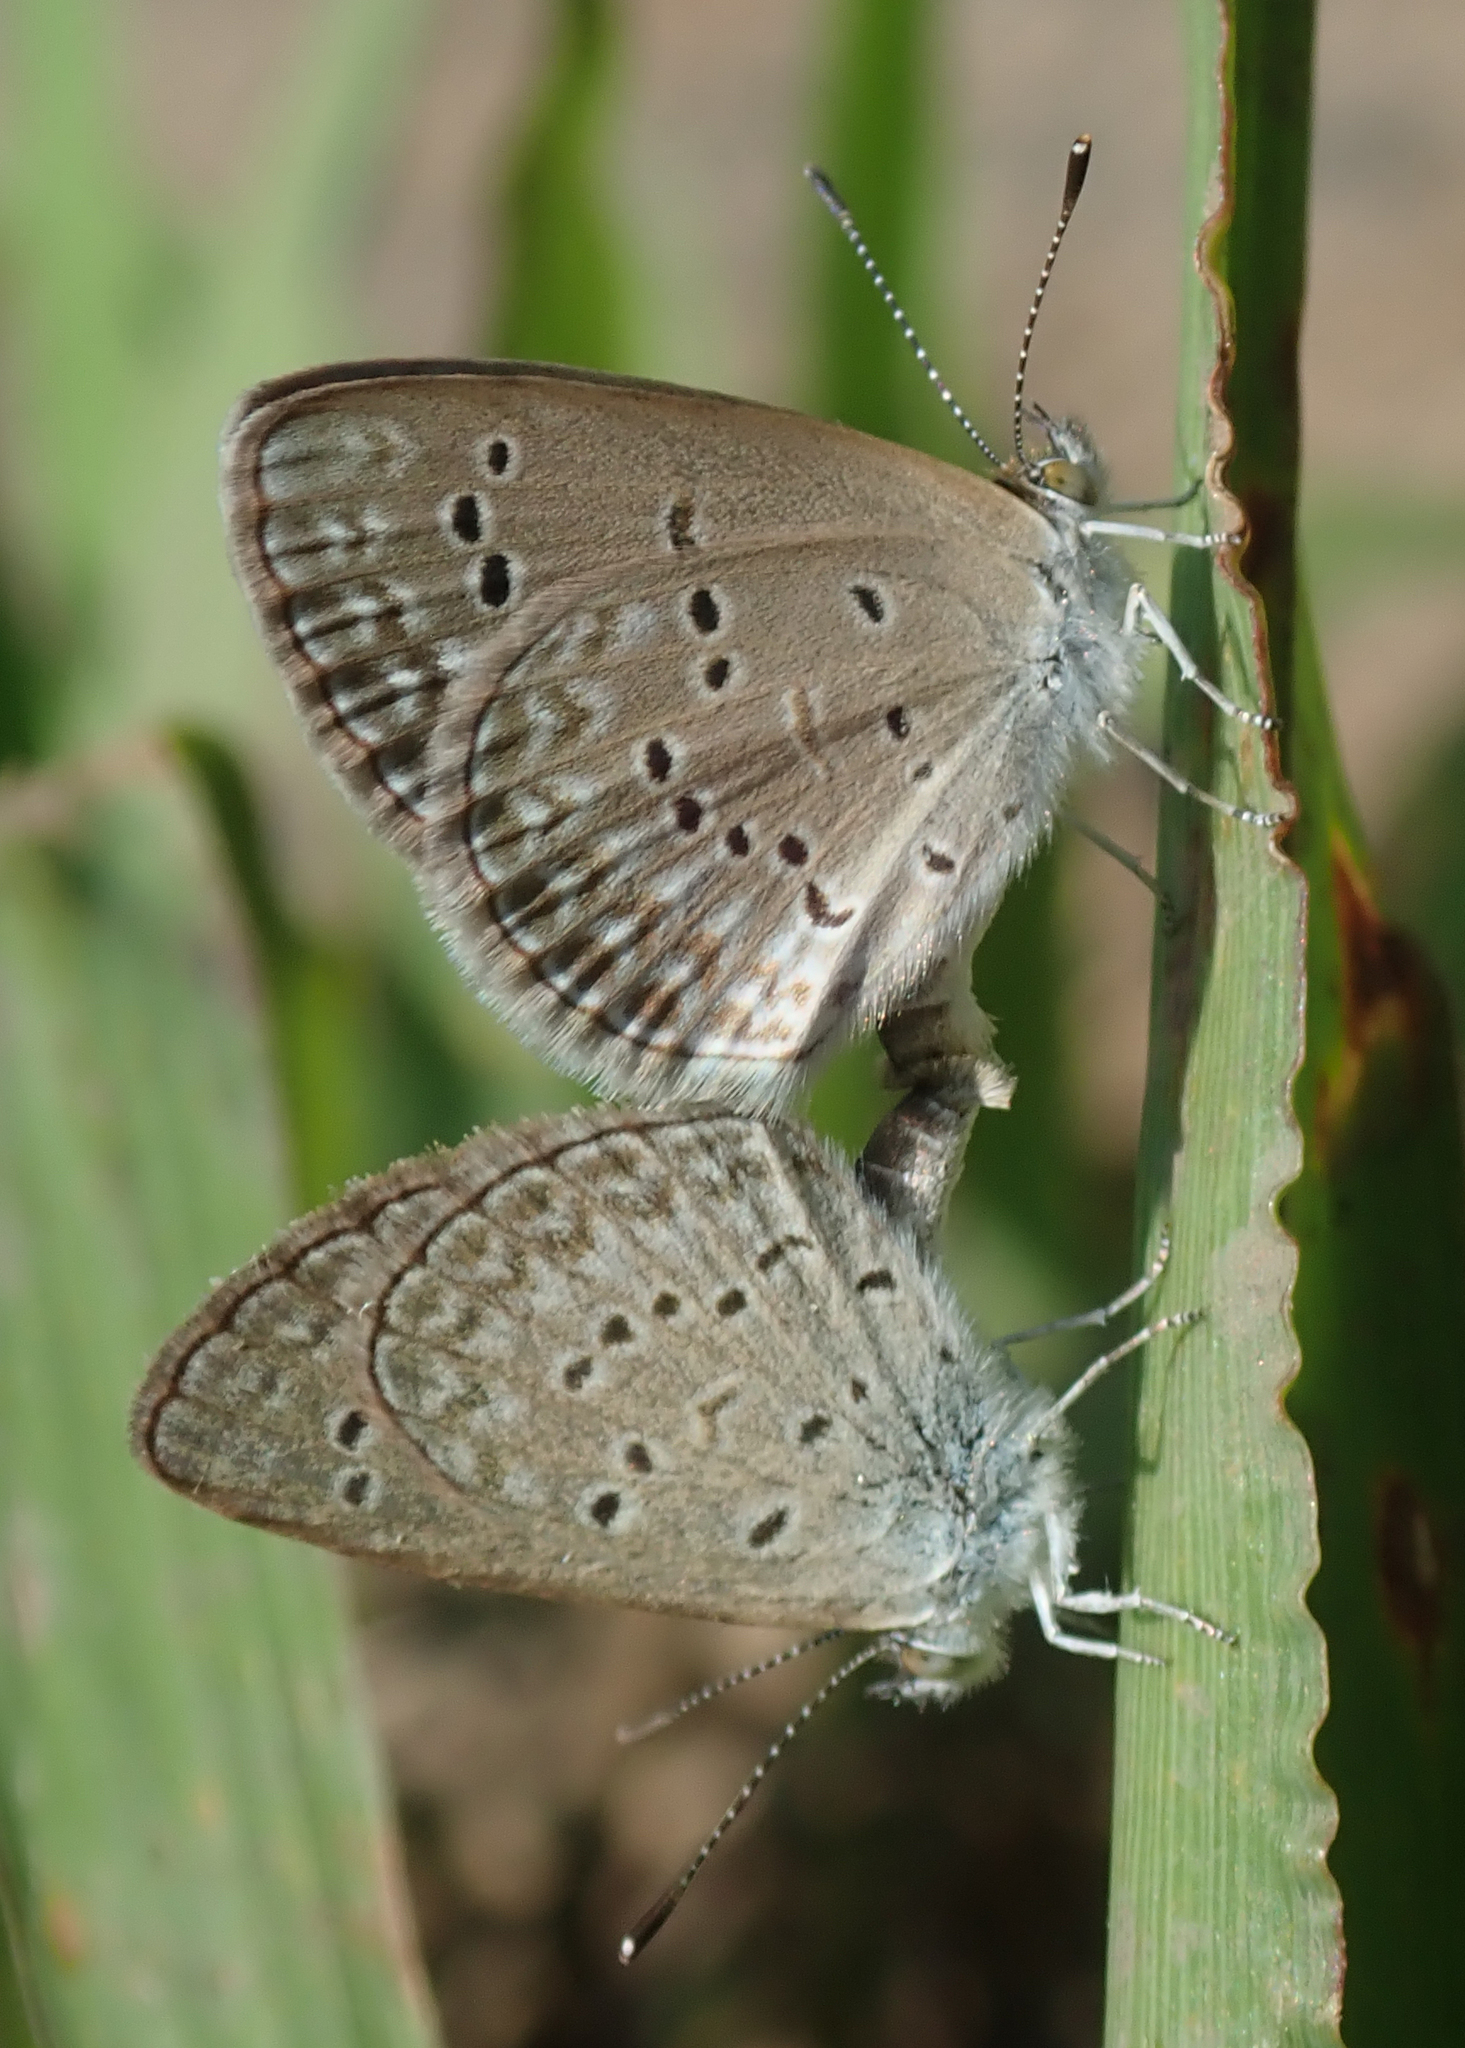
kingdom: Animalia
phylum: Arthropoda
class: Insecta
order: Lepidoptera
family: Lycaenidae
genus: Zizina
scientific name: Zizina antanossa
